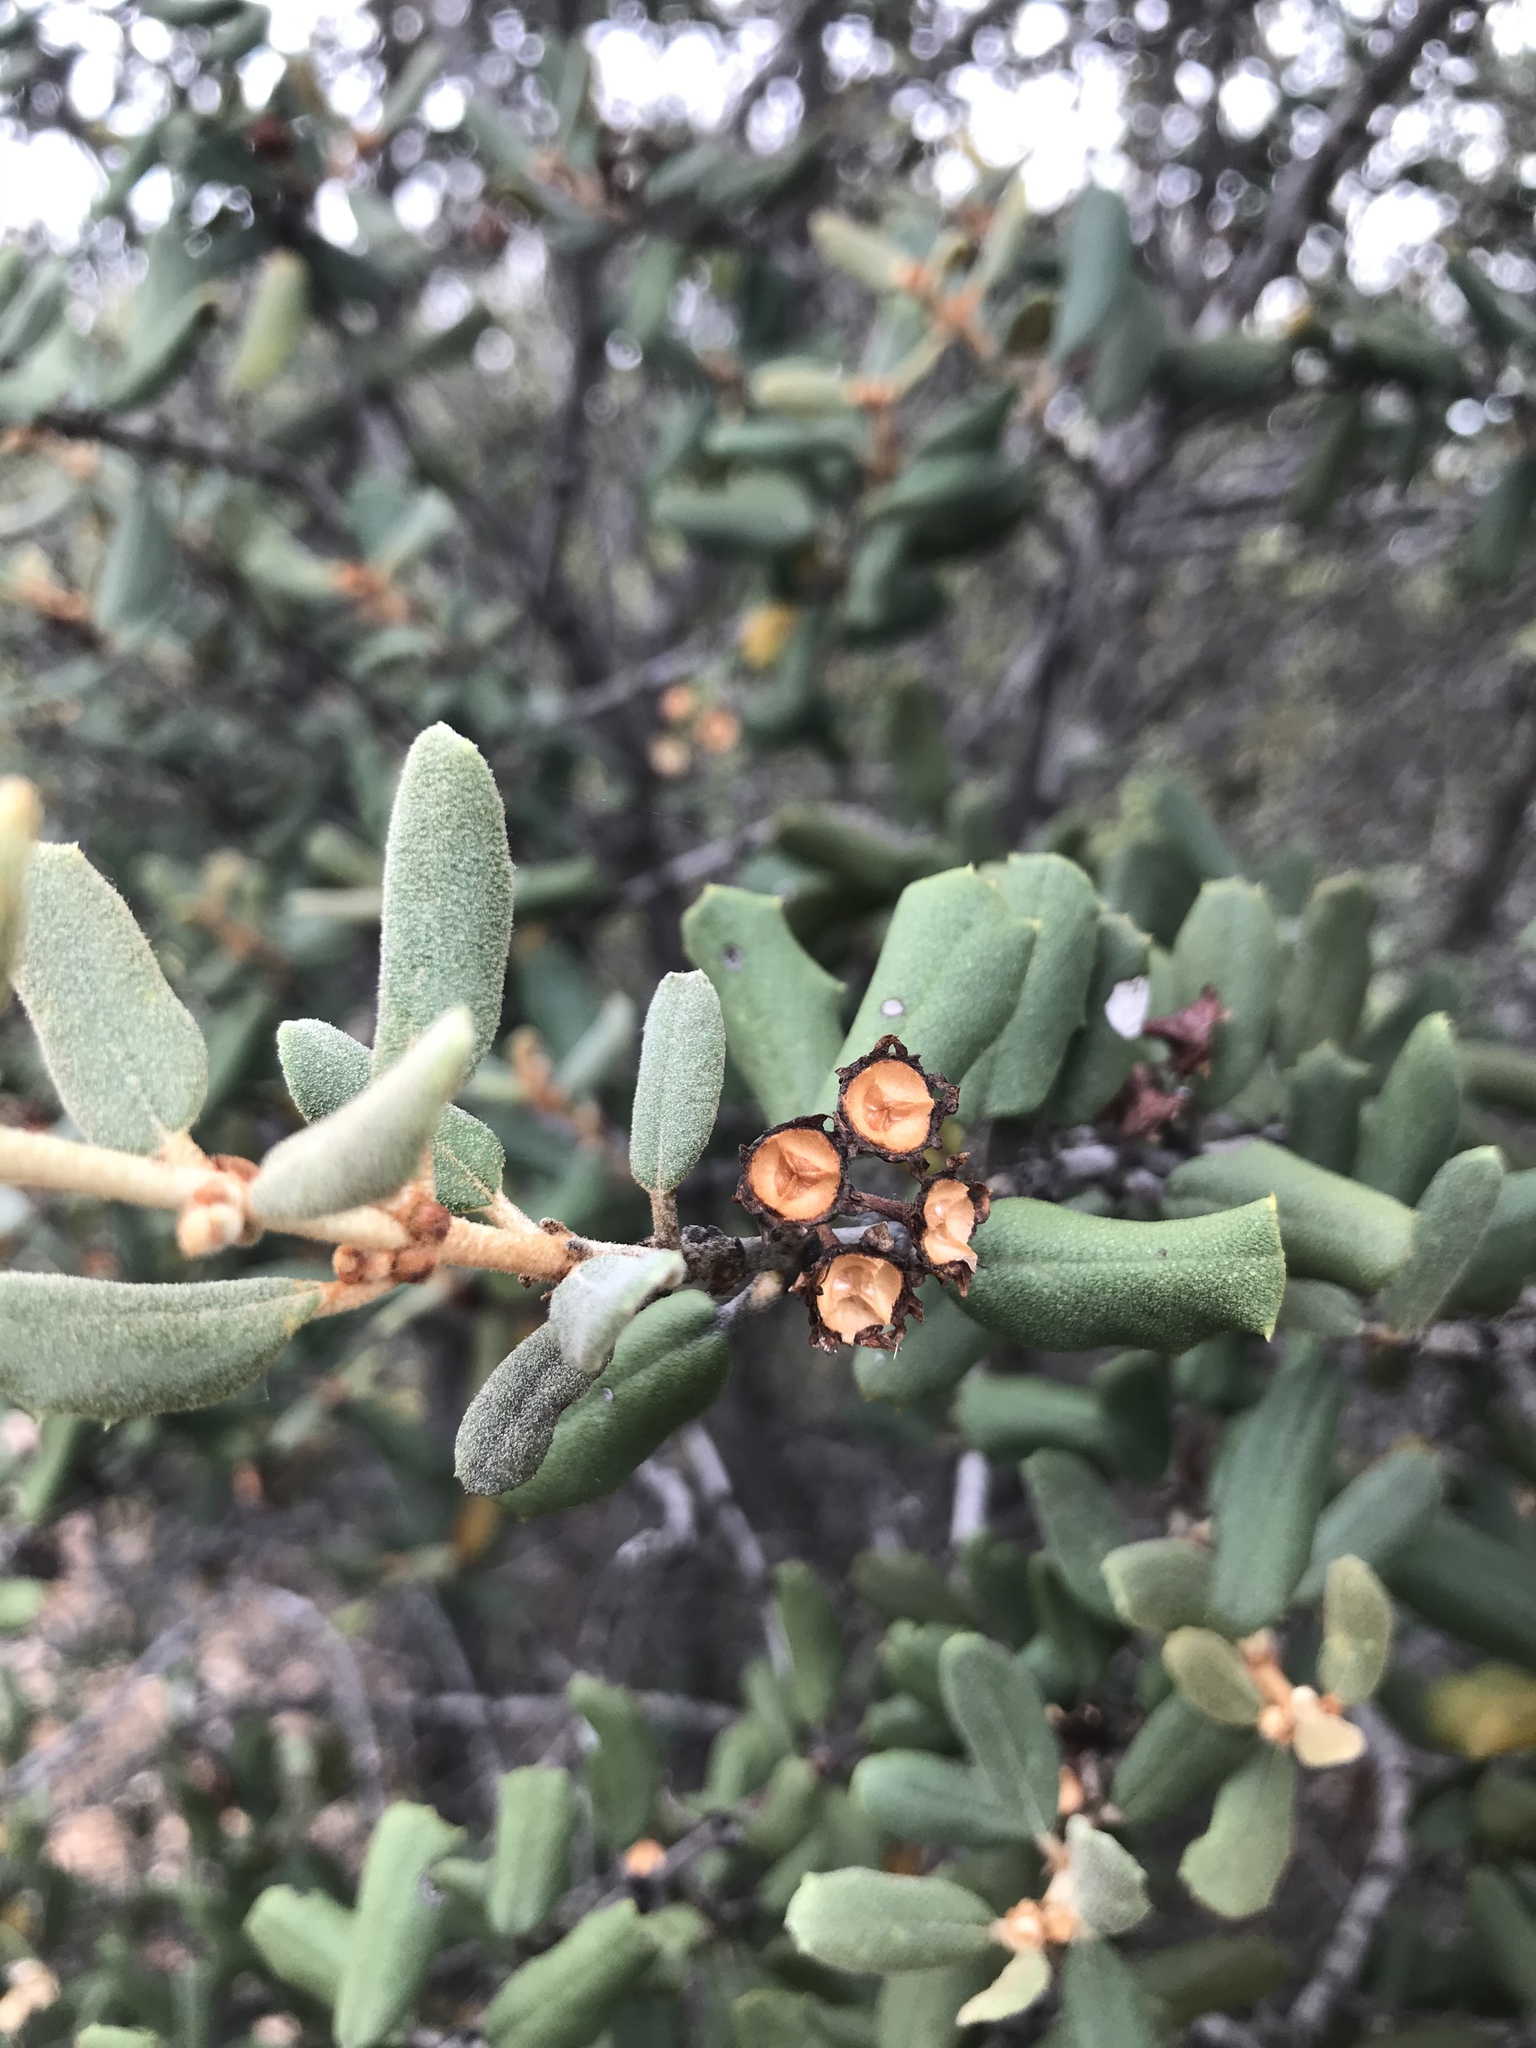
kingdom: Plantae
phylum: Tracheophyta
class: Magnoliopsida
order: Rosales
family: Rhamnaceae
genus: Ceanothus
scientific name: Ceanothus crassifolius
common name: Hoaryleaf ceanothus
